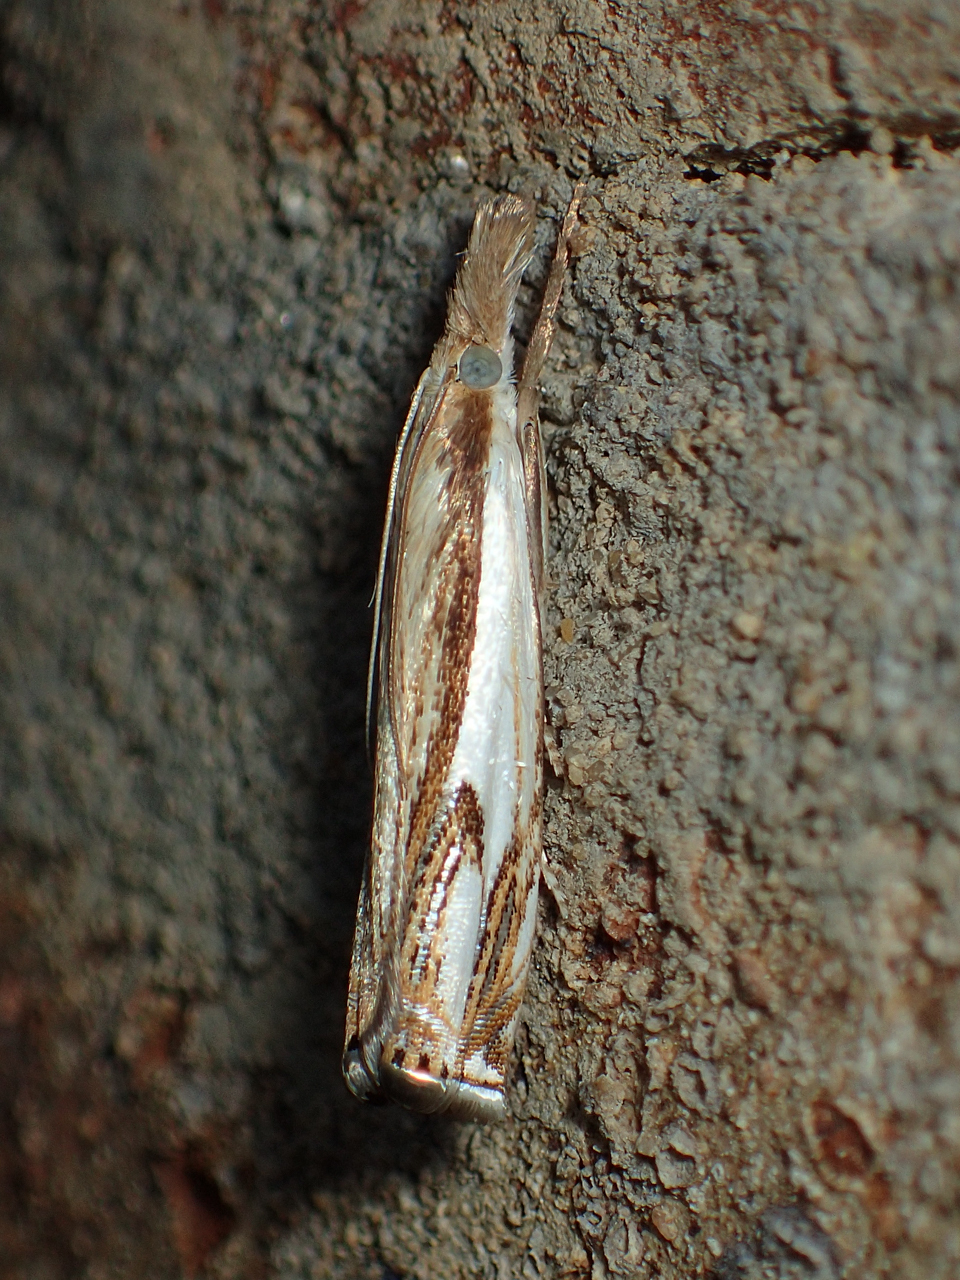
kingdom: Animalia
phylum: Arthropoda
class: Insecta
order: Lepidoptera
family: Crambidae
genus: Crambus
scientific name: Crambus agitatellus
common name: Double-banded grass-veneer
